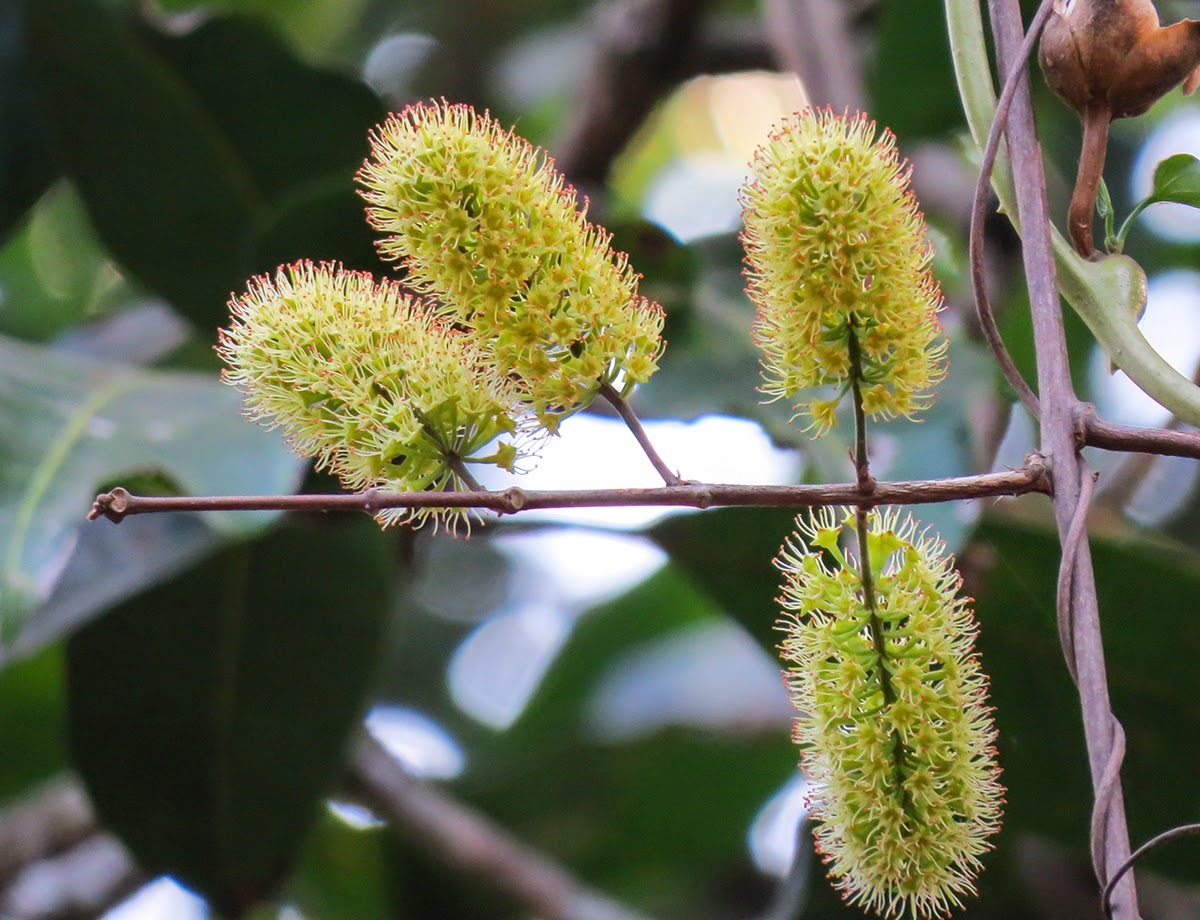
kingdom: Plantae
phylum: Tracheophyta
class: Magnoliopsida
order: Myrtales
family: Combretaceae
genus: Combretum
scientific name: Combretum latifolium
